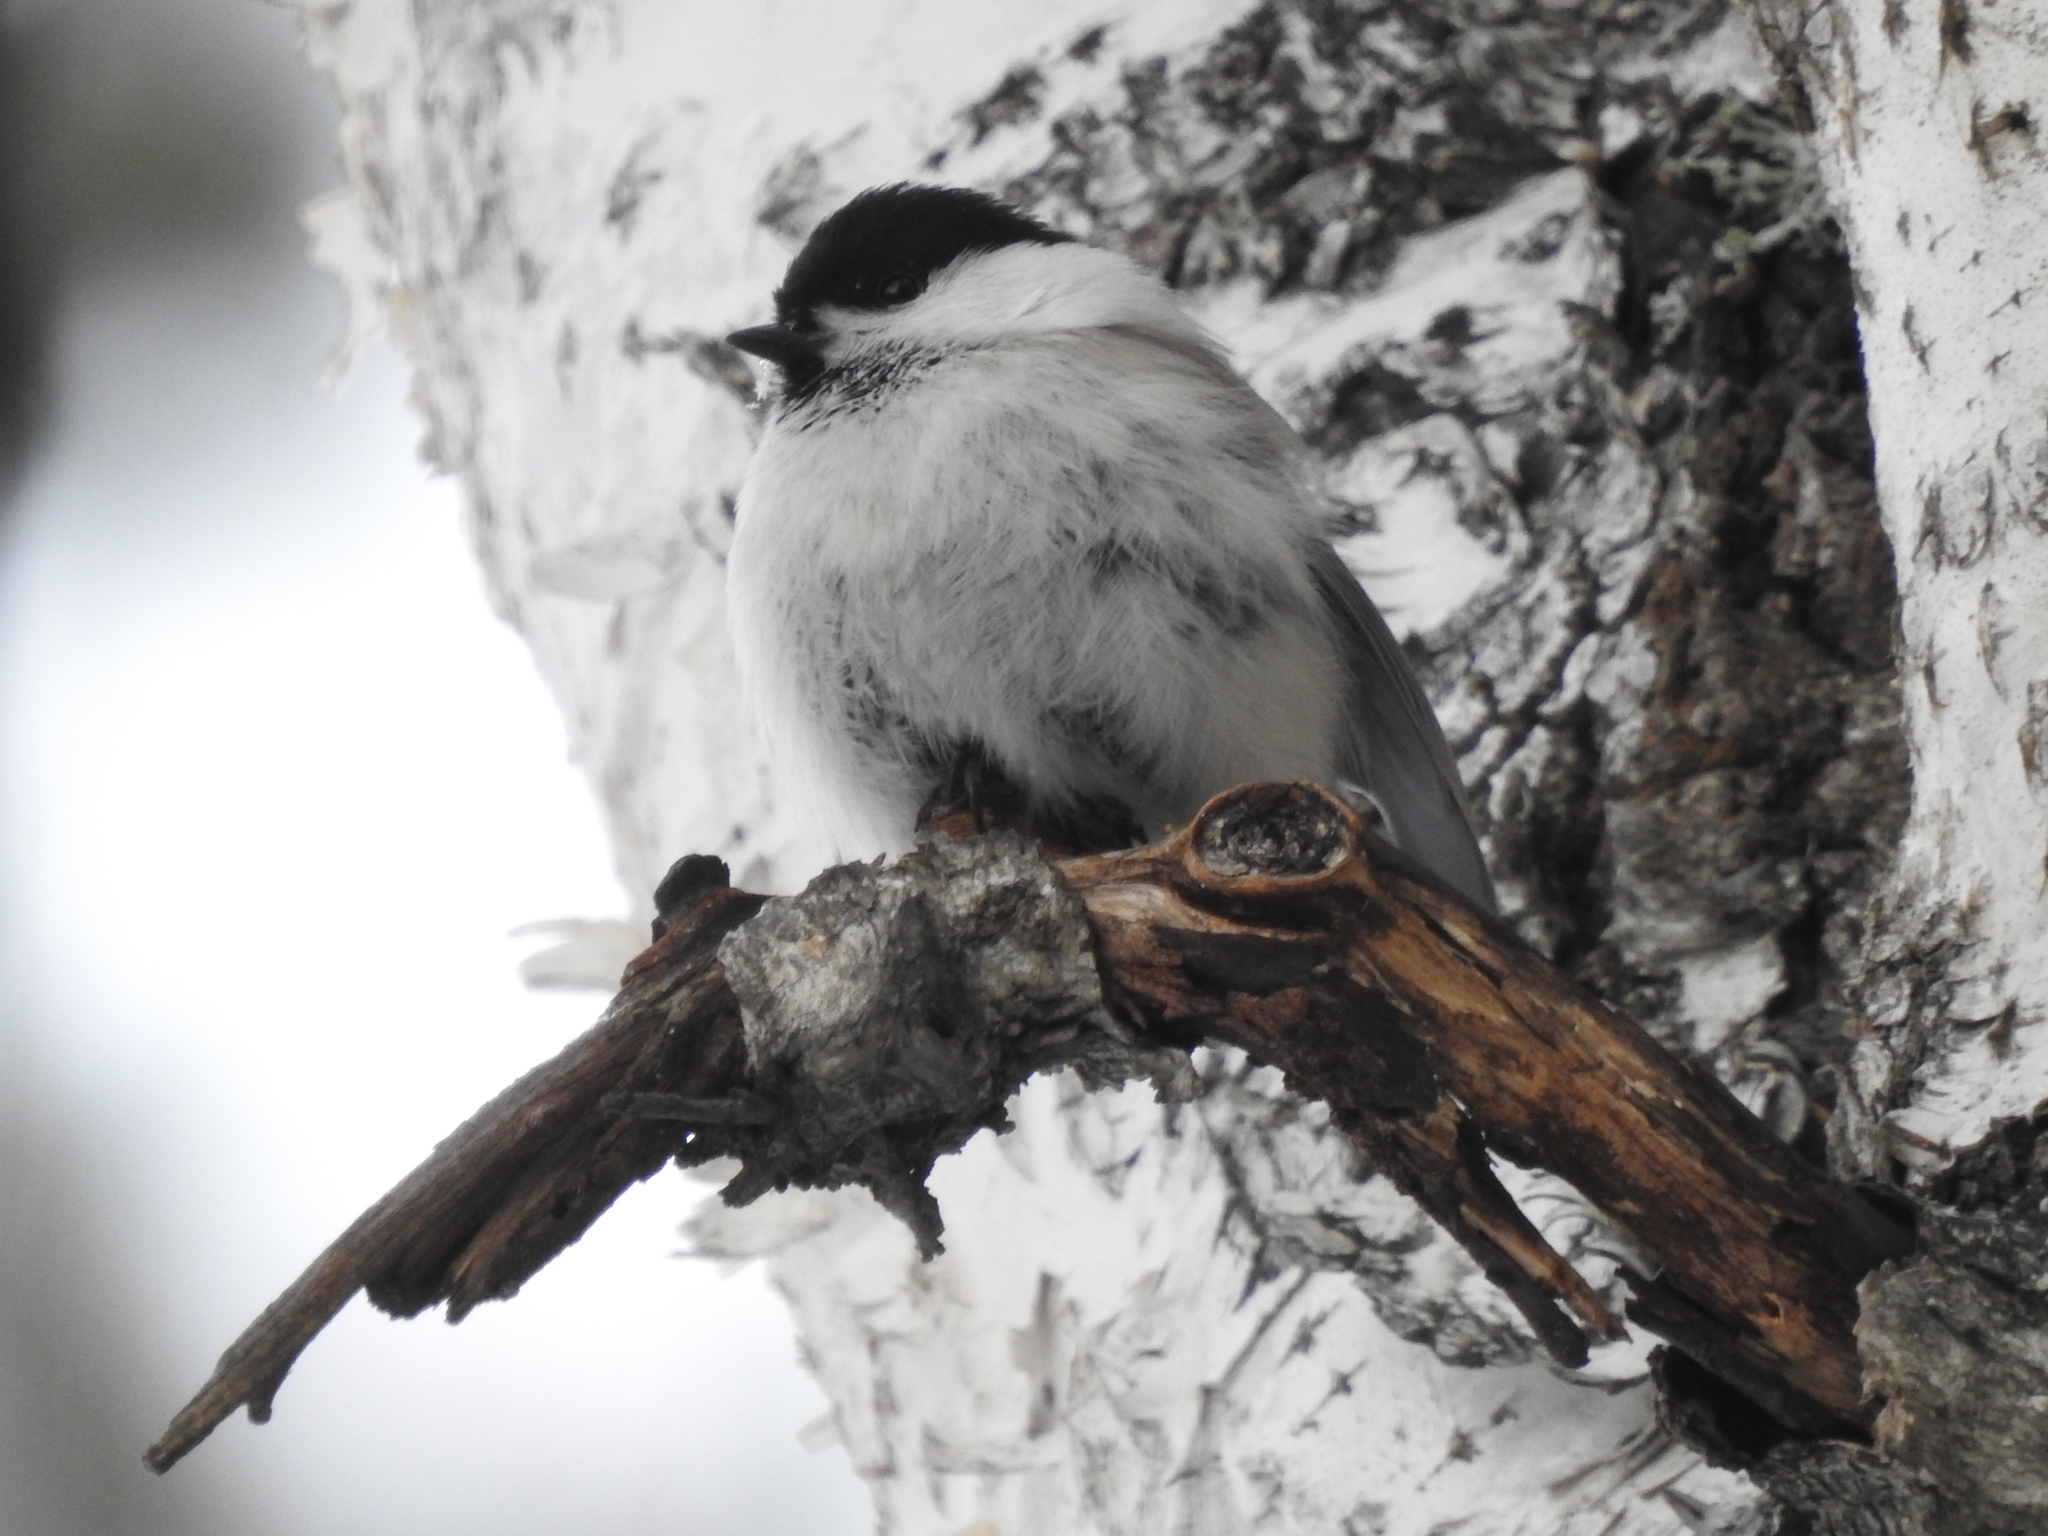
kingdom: Animalia
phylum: Chordata
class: Aves
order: Passeriformes
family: Paridae
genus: Poecile
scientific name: Poecile montanus
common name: Willow tit
